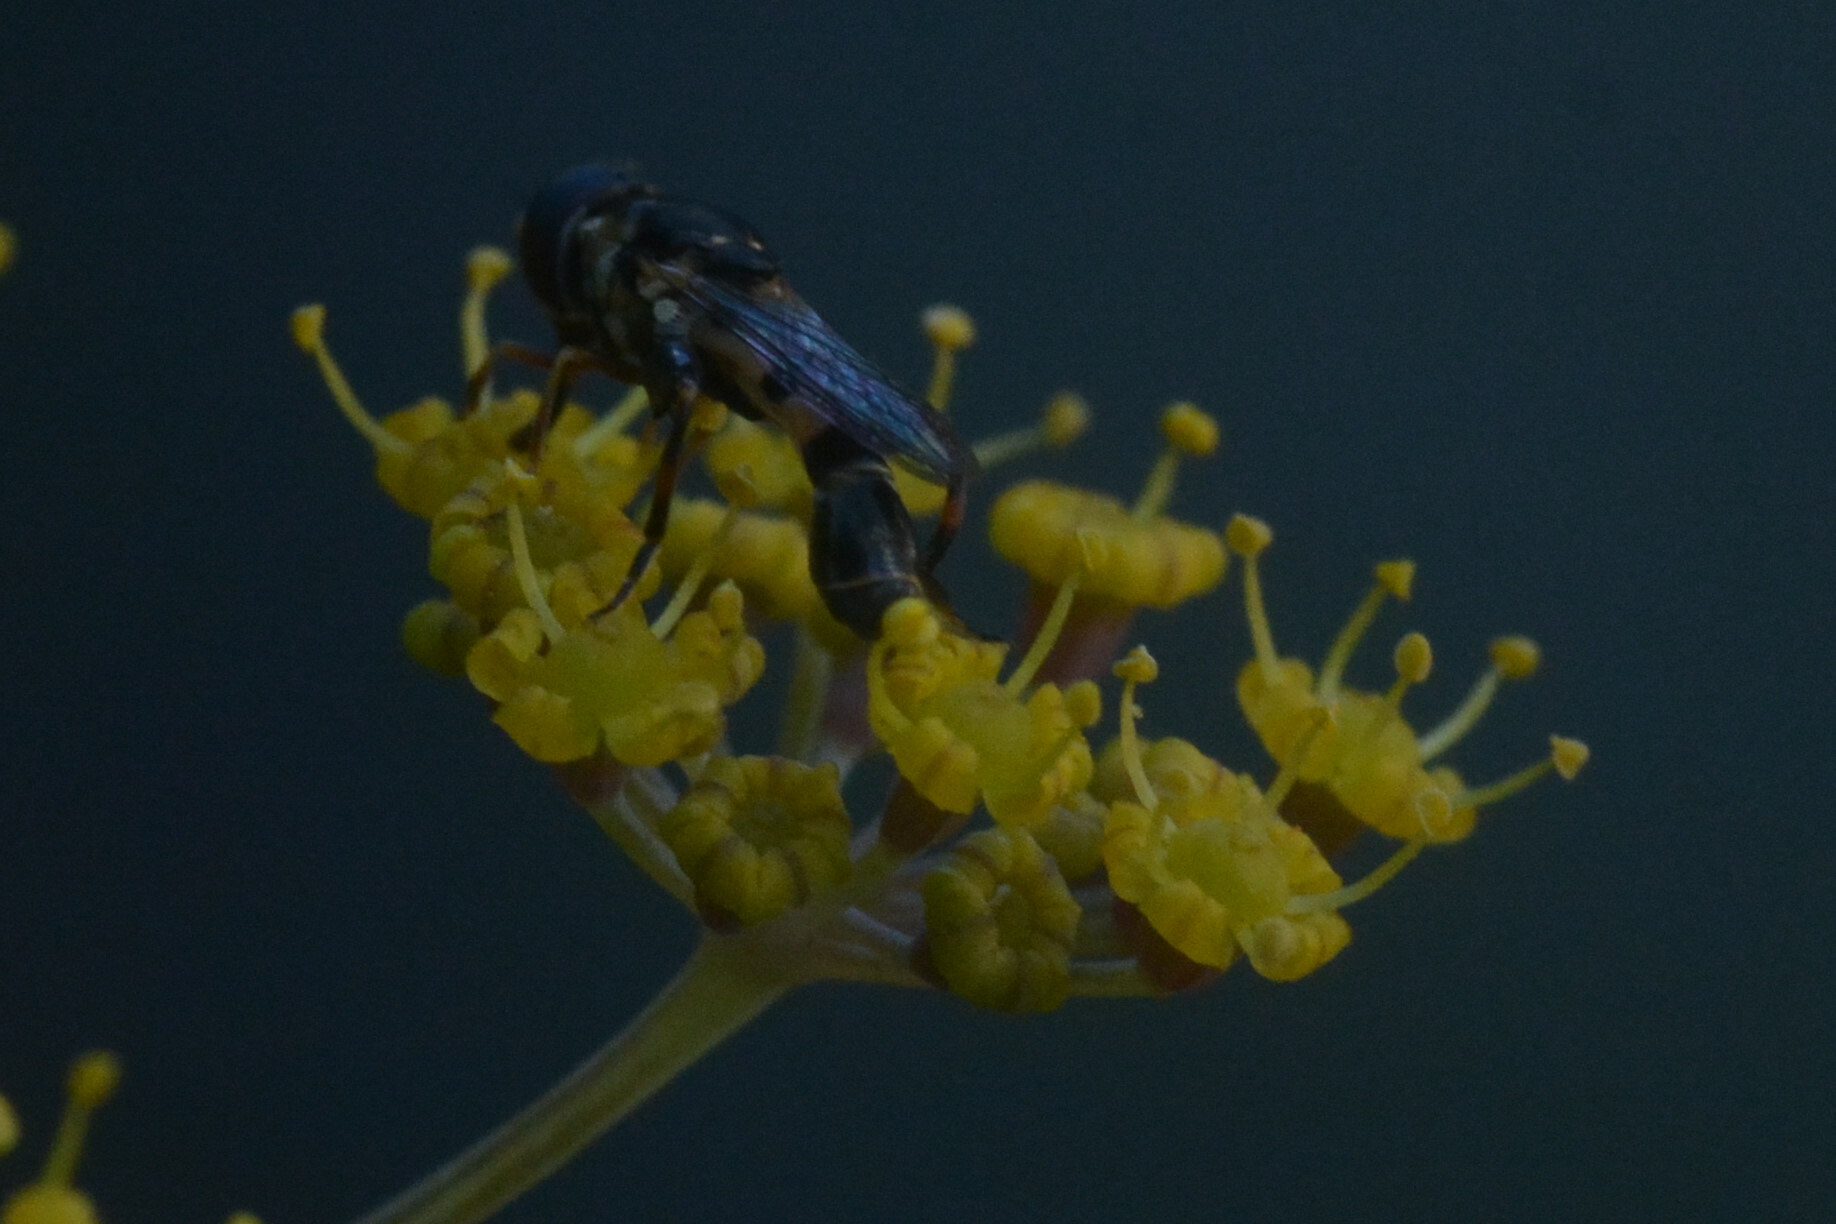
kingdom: Animalia
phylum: Arthropoda
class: Insecta
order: Diptera
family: Syrphidae
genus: Syritta
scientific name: Syritta pipiens
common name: Hover fly
